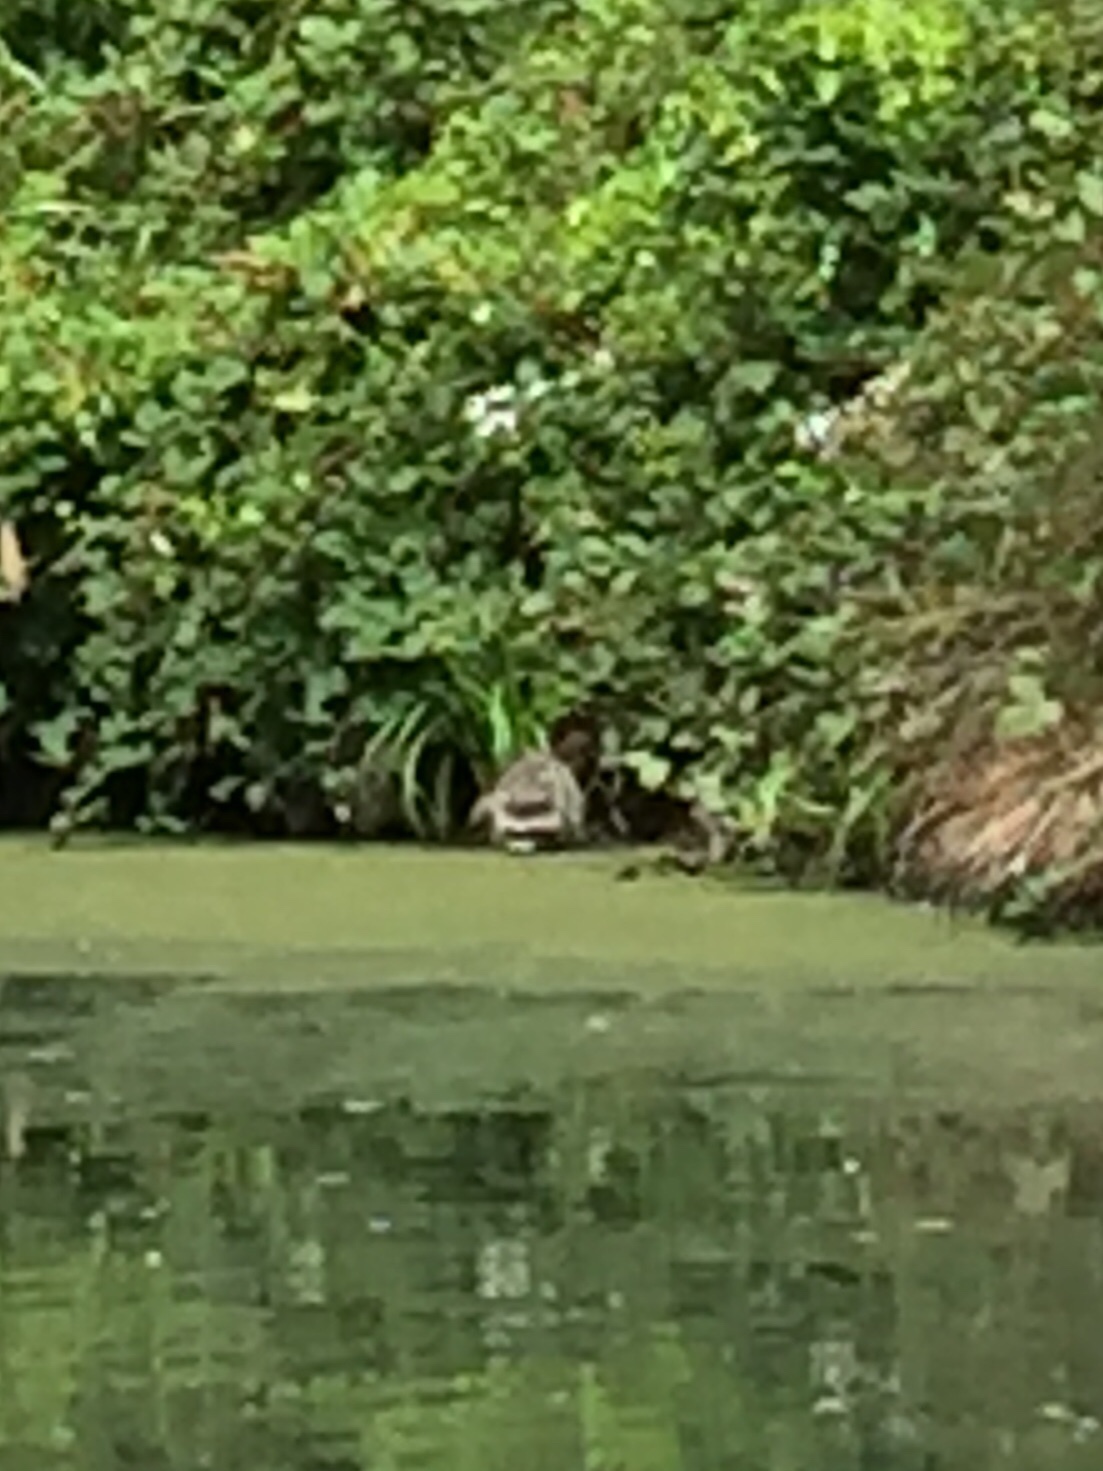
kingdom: Animalia
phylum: Chordata
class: Mammalia
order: Carnivora
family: Procyonidae
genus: Procyon
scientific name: Procyon lotor
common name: Raccoon
